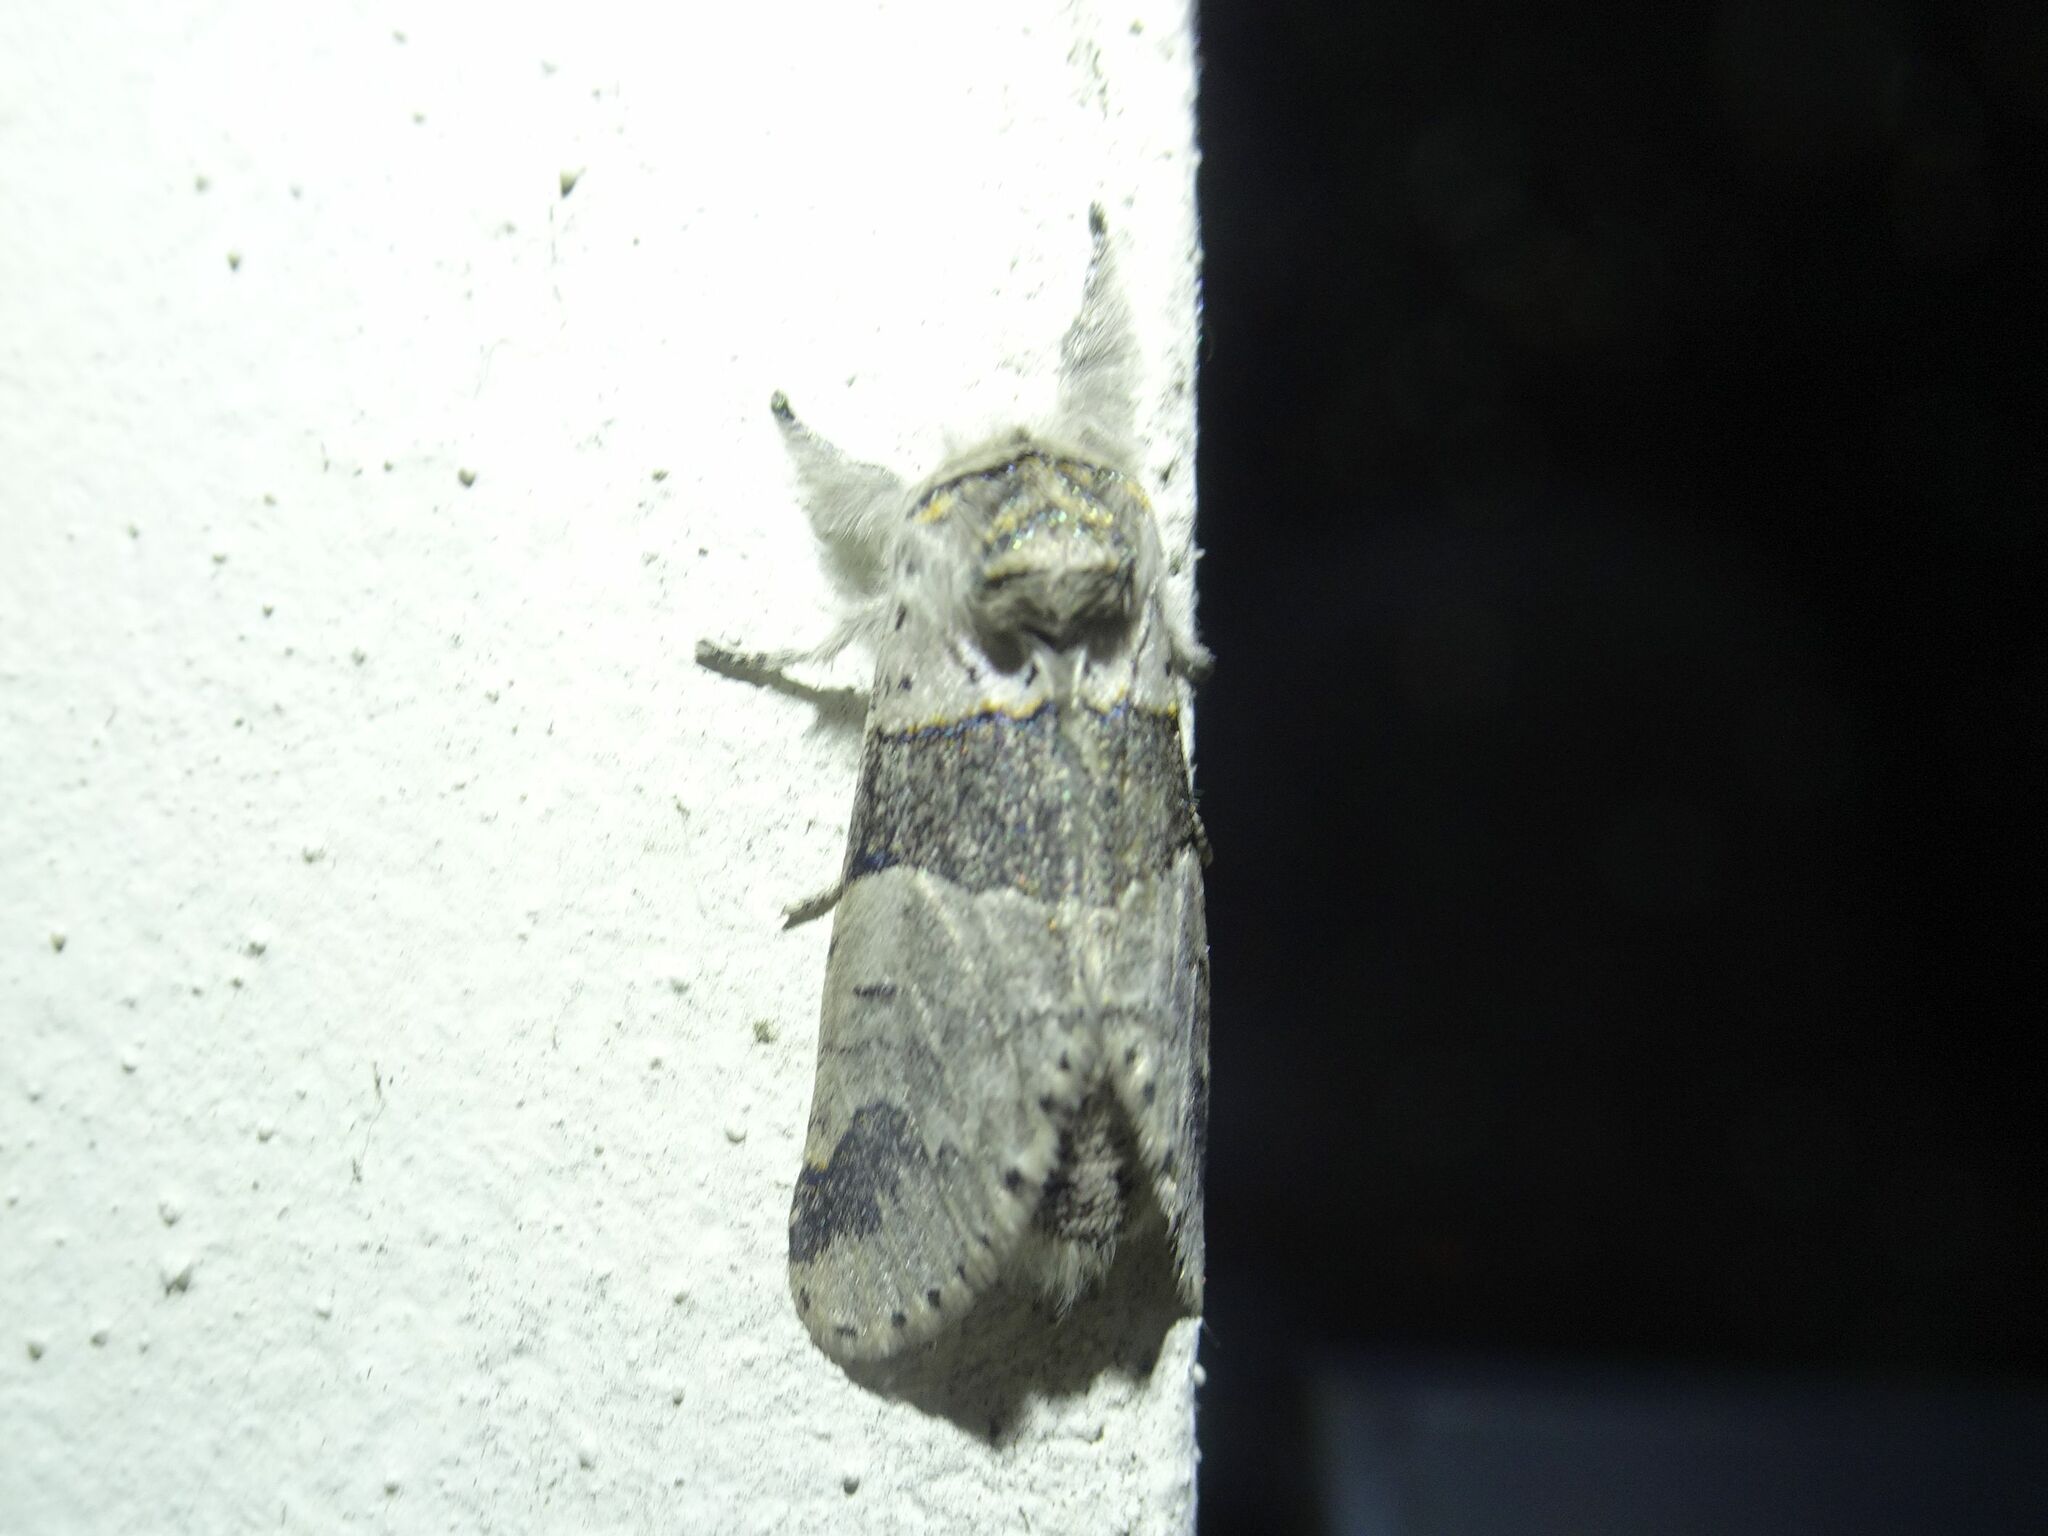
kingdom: Animalia
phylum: Arthropoda
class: Insecta
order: Lepidoptera
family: Notodontidae
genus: Furcula
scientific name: Furcula bifida
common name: Poplar kitten
